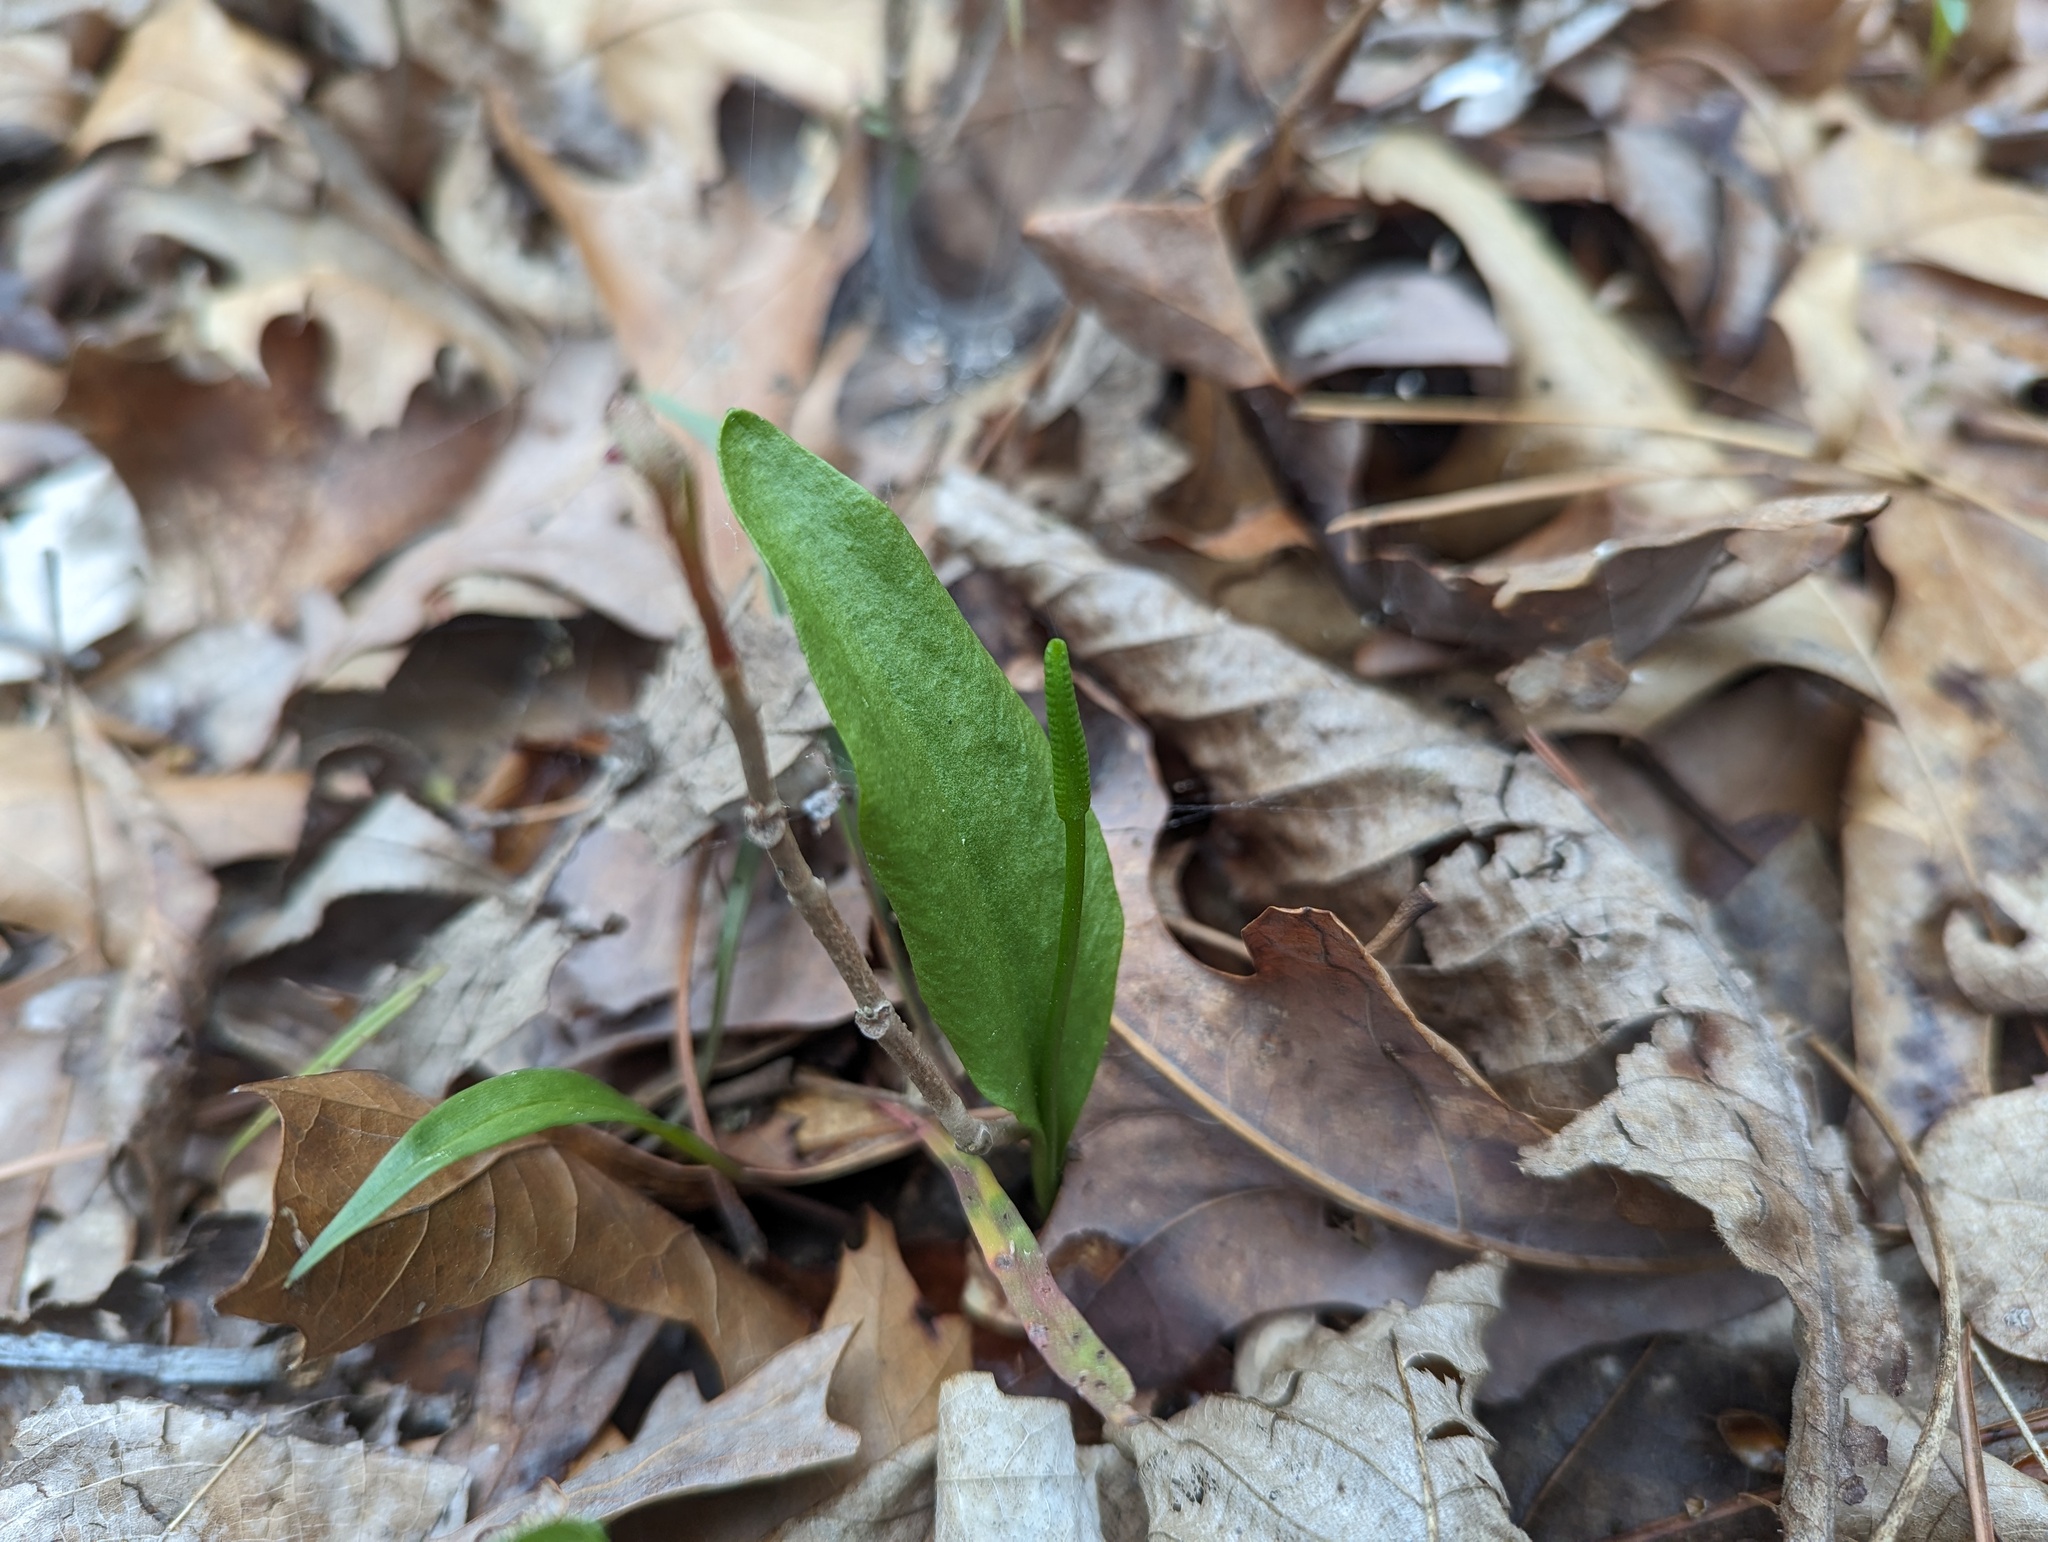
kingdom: Plantae
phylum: Tracheophyta
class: Polypodiopsida
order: Ophioglossales
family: Ophioglossaceae
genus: Ophioglossum
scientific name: Ophioglossum vulgatum
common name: Adder's-tongue
